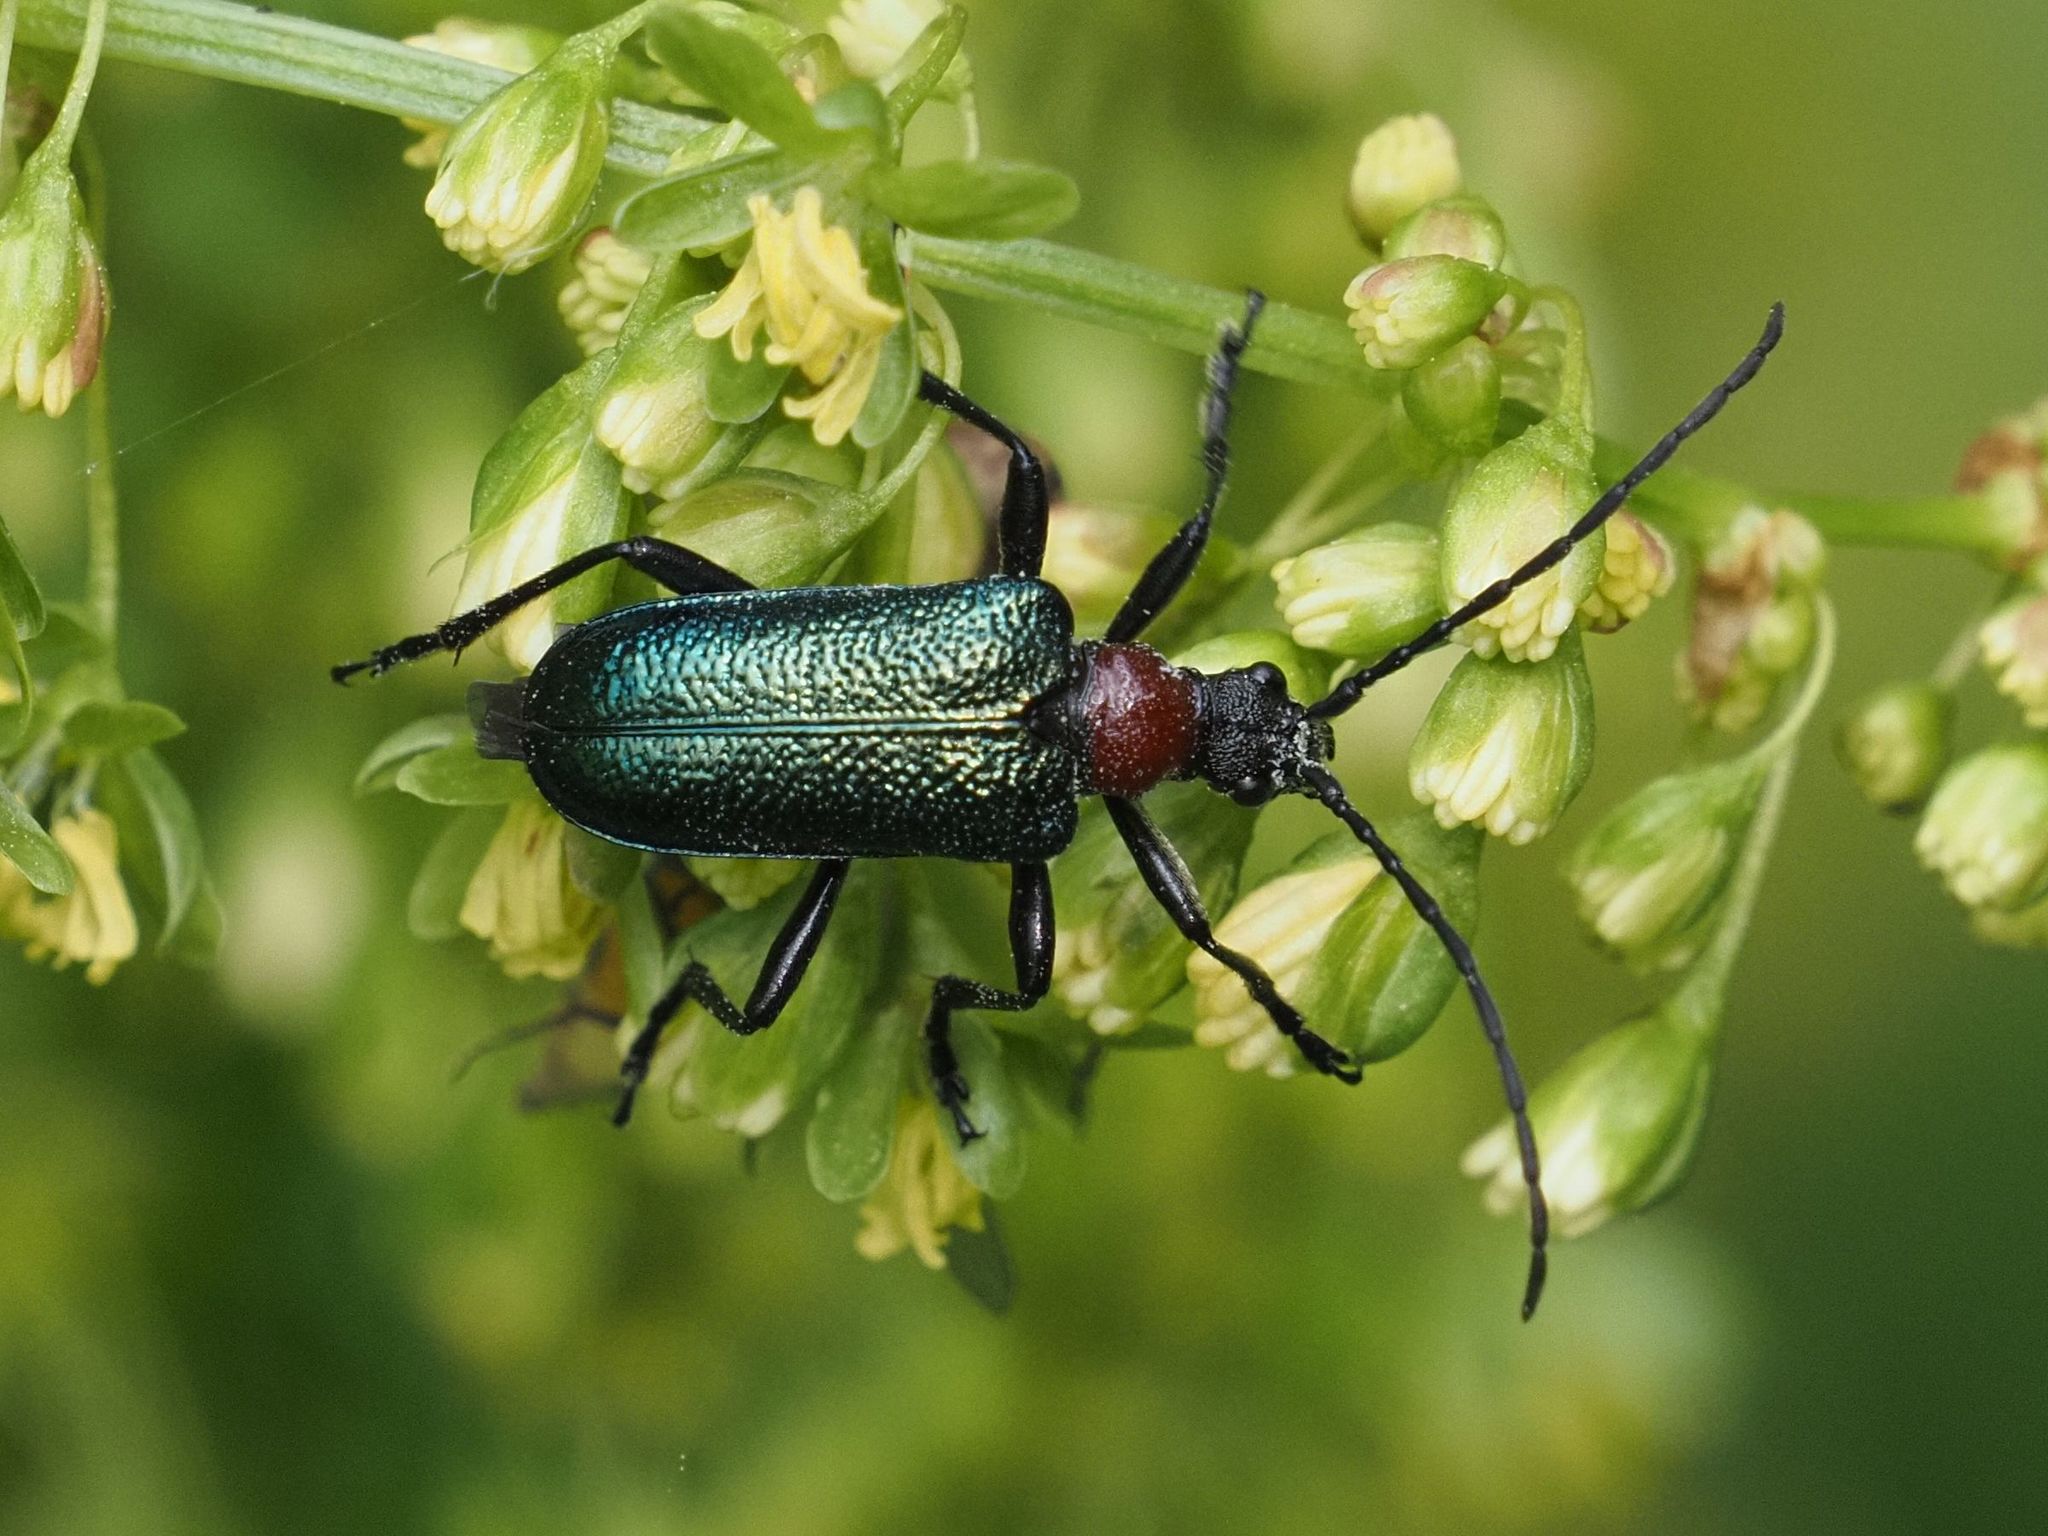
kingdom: Animalia
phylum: Arthropoda
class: Insecta
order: Coleoptera
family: Cerambycidae
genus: Gaurotes
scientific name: Gaurotes virginea
